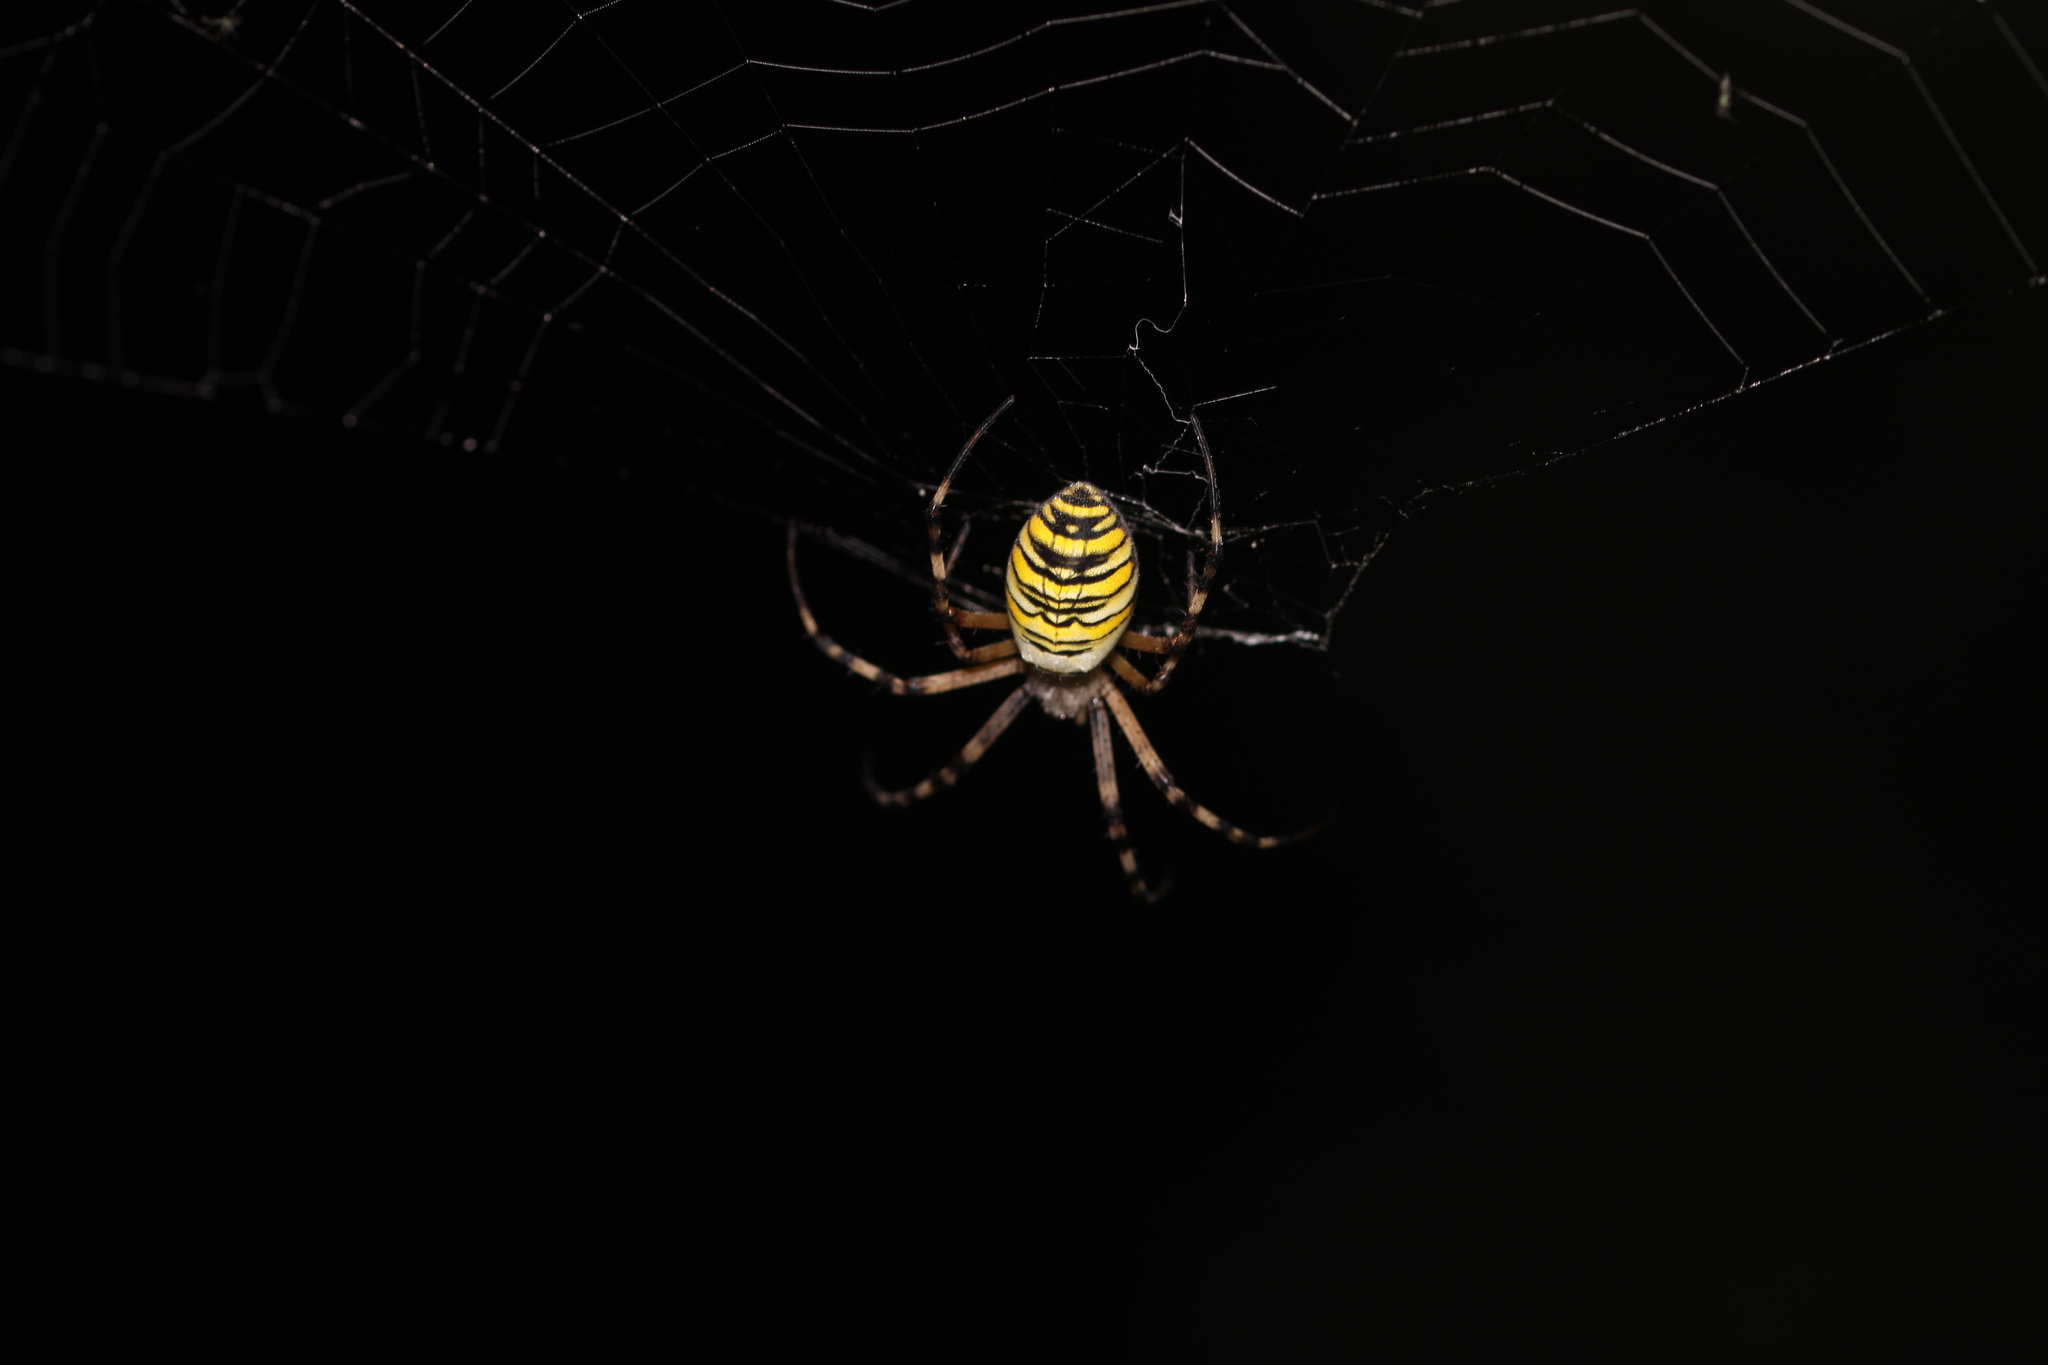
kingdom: Animalia
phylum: Arthropoda
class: Arachnida
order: Araneae
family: Araneidae
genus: Argiope
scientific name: Argiope bruennichi
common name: Wasp spider
